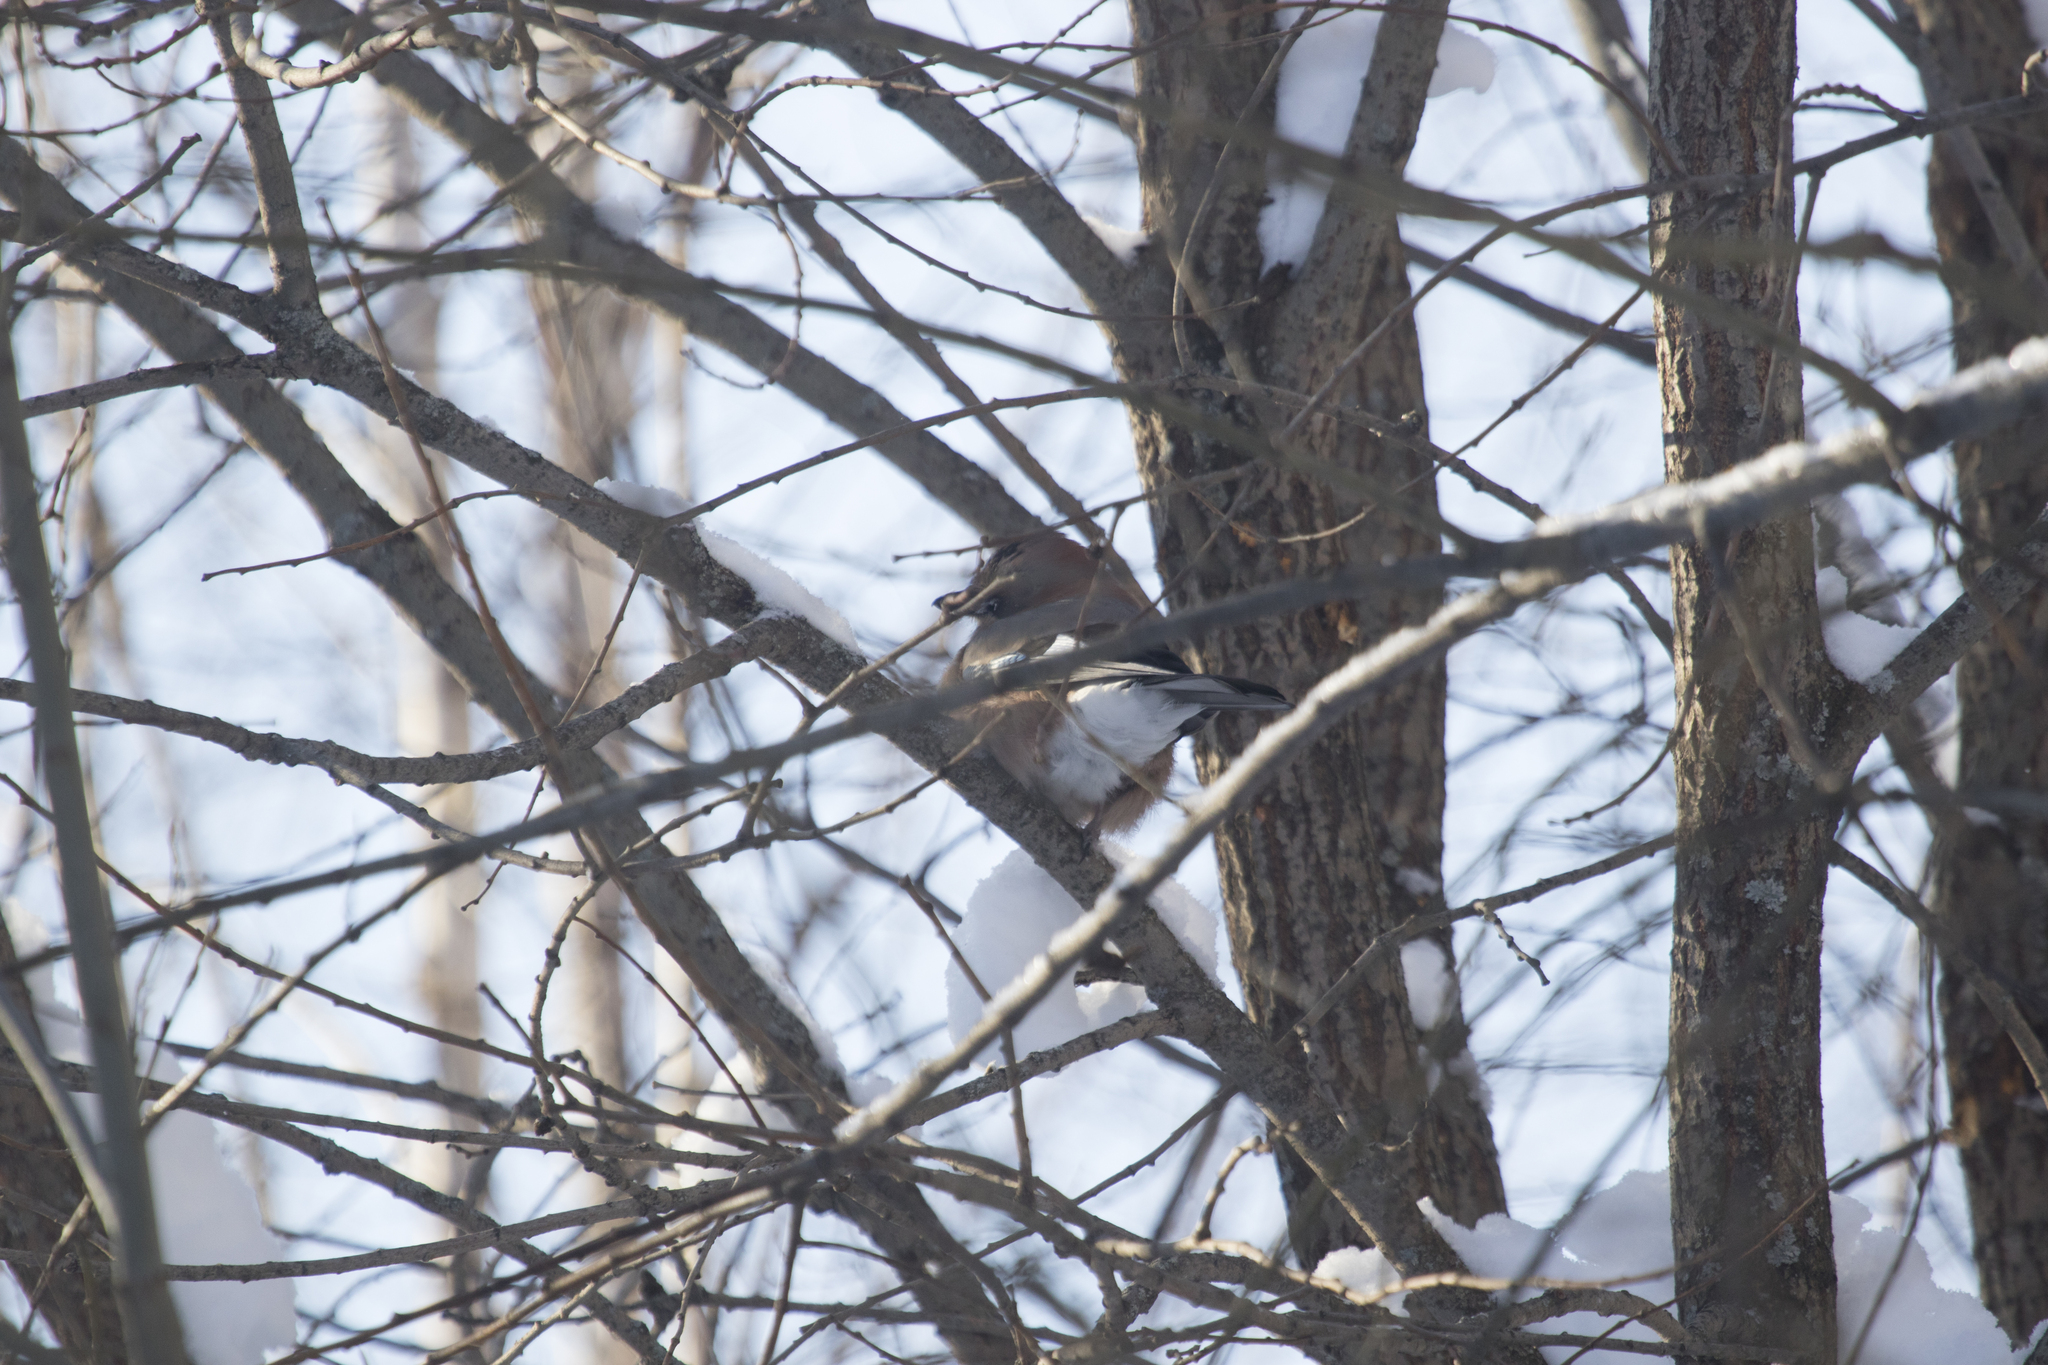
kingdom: Animalia
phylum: Chordata
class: Aves
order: Passeriformes
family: Corvidae
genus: Garrulus
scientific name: Garrulus glandarius
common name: Eurasian jay
